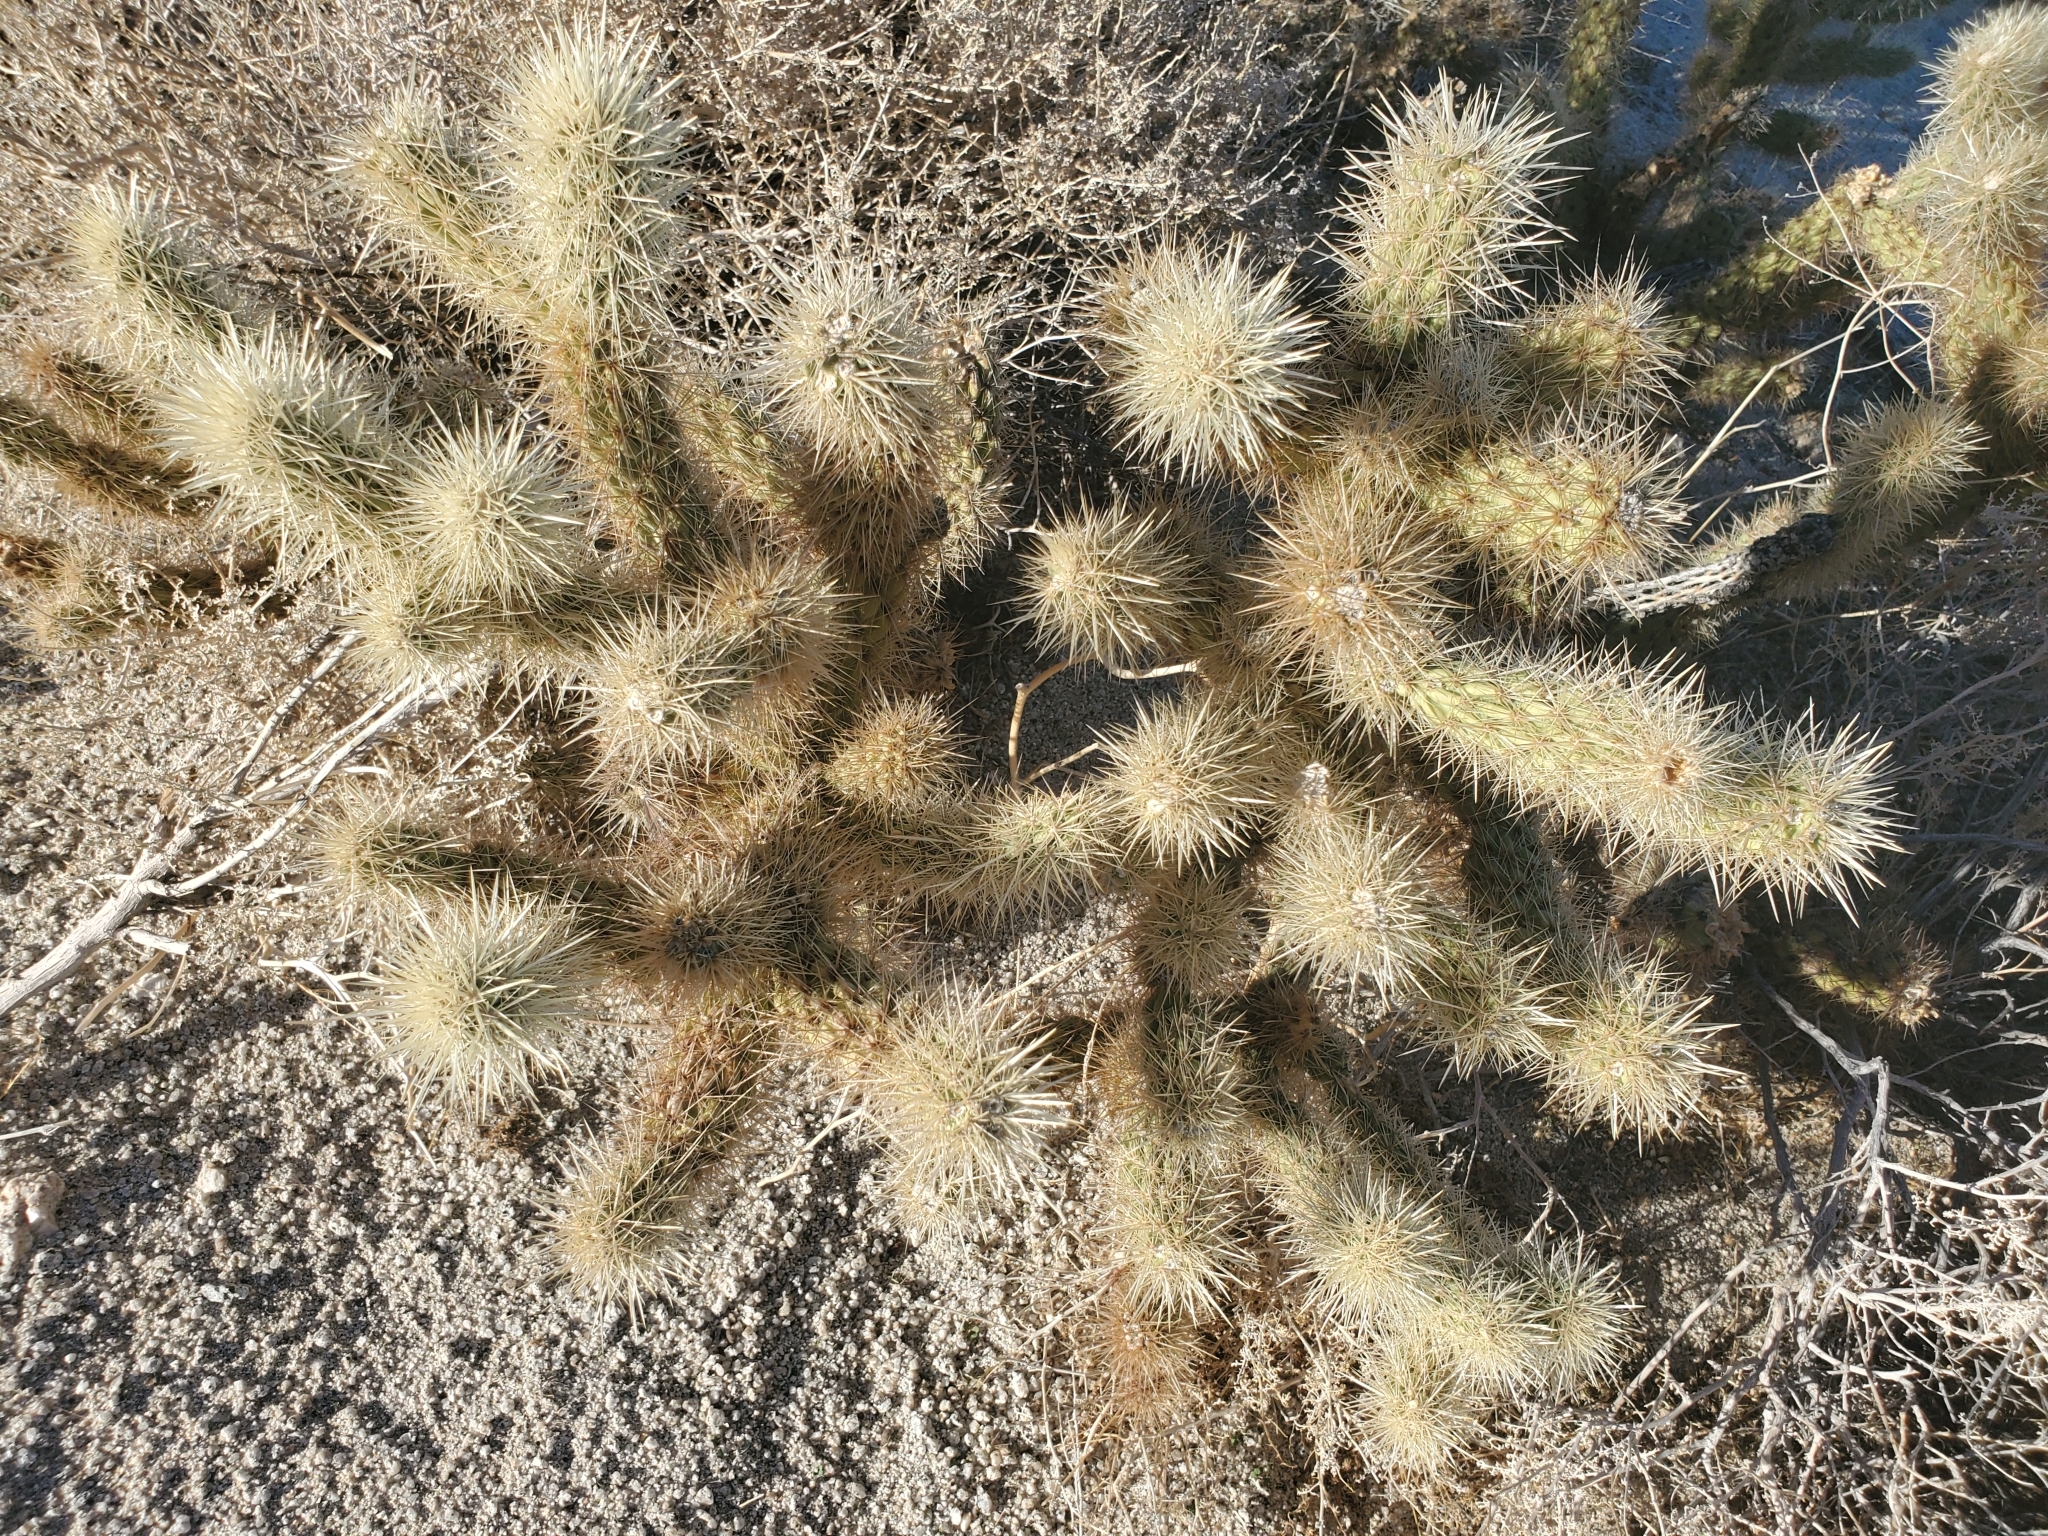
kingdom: Plantae
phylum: Tracheophyta
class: Magnoliopsida
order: Caryophyllales
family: Cactaceae
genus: Cylindropuntia
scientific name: Cylindropuntia wolfii
